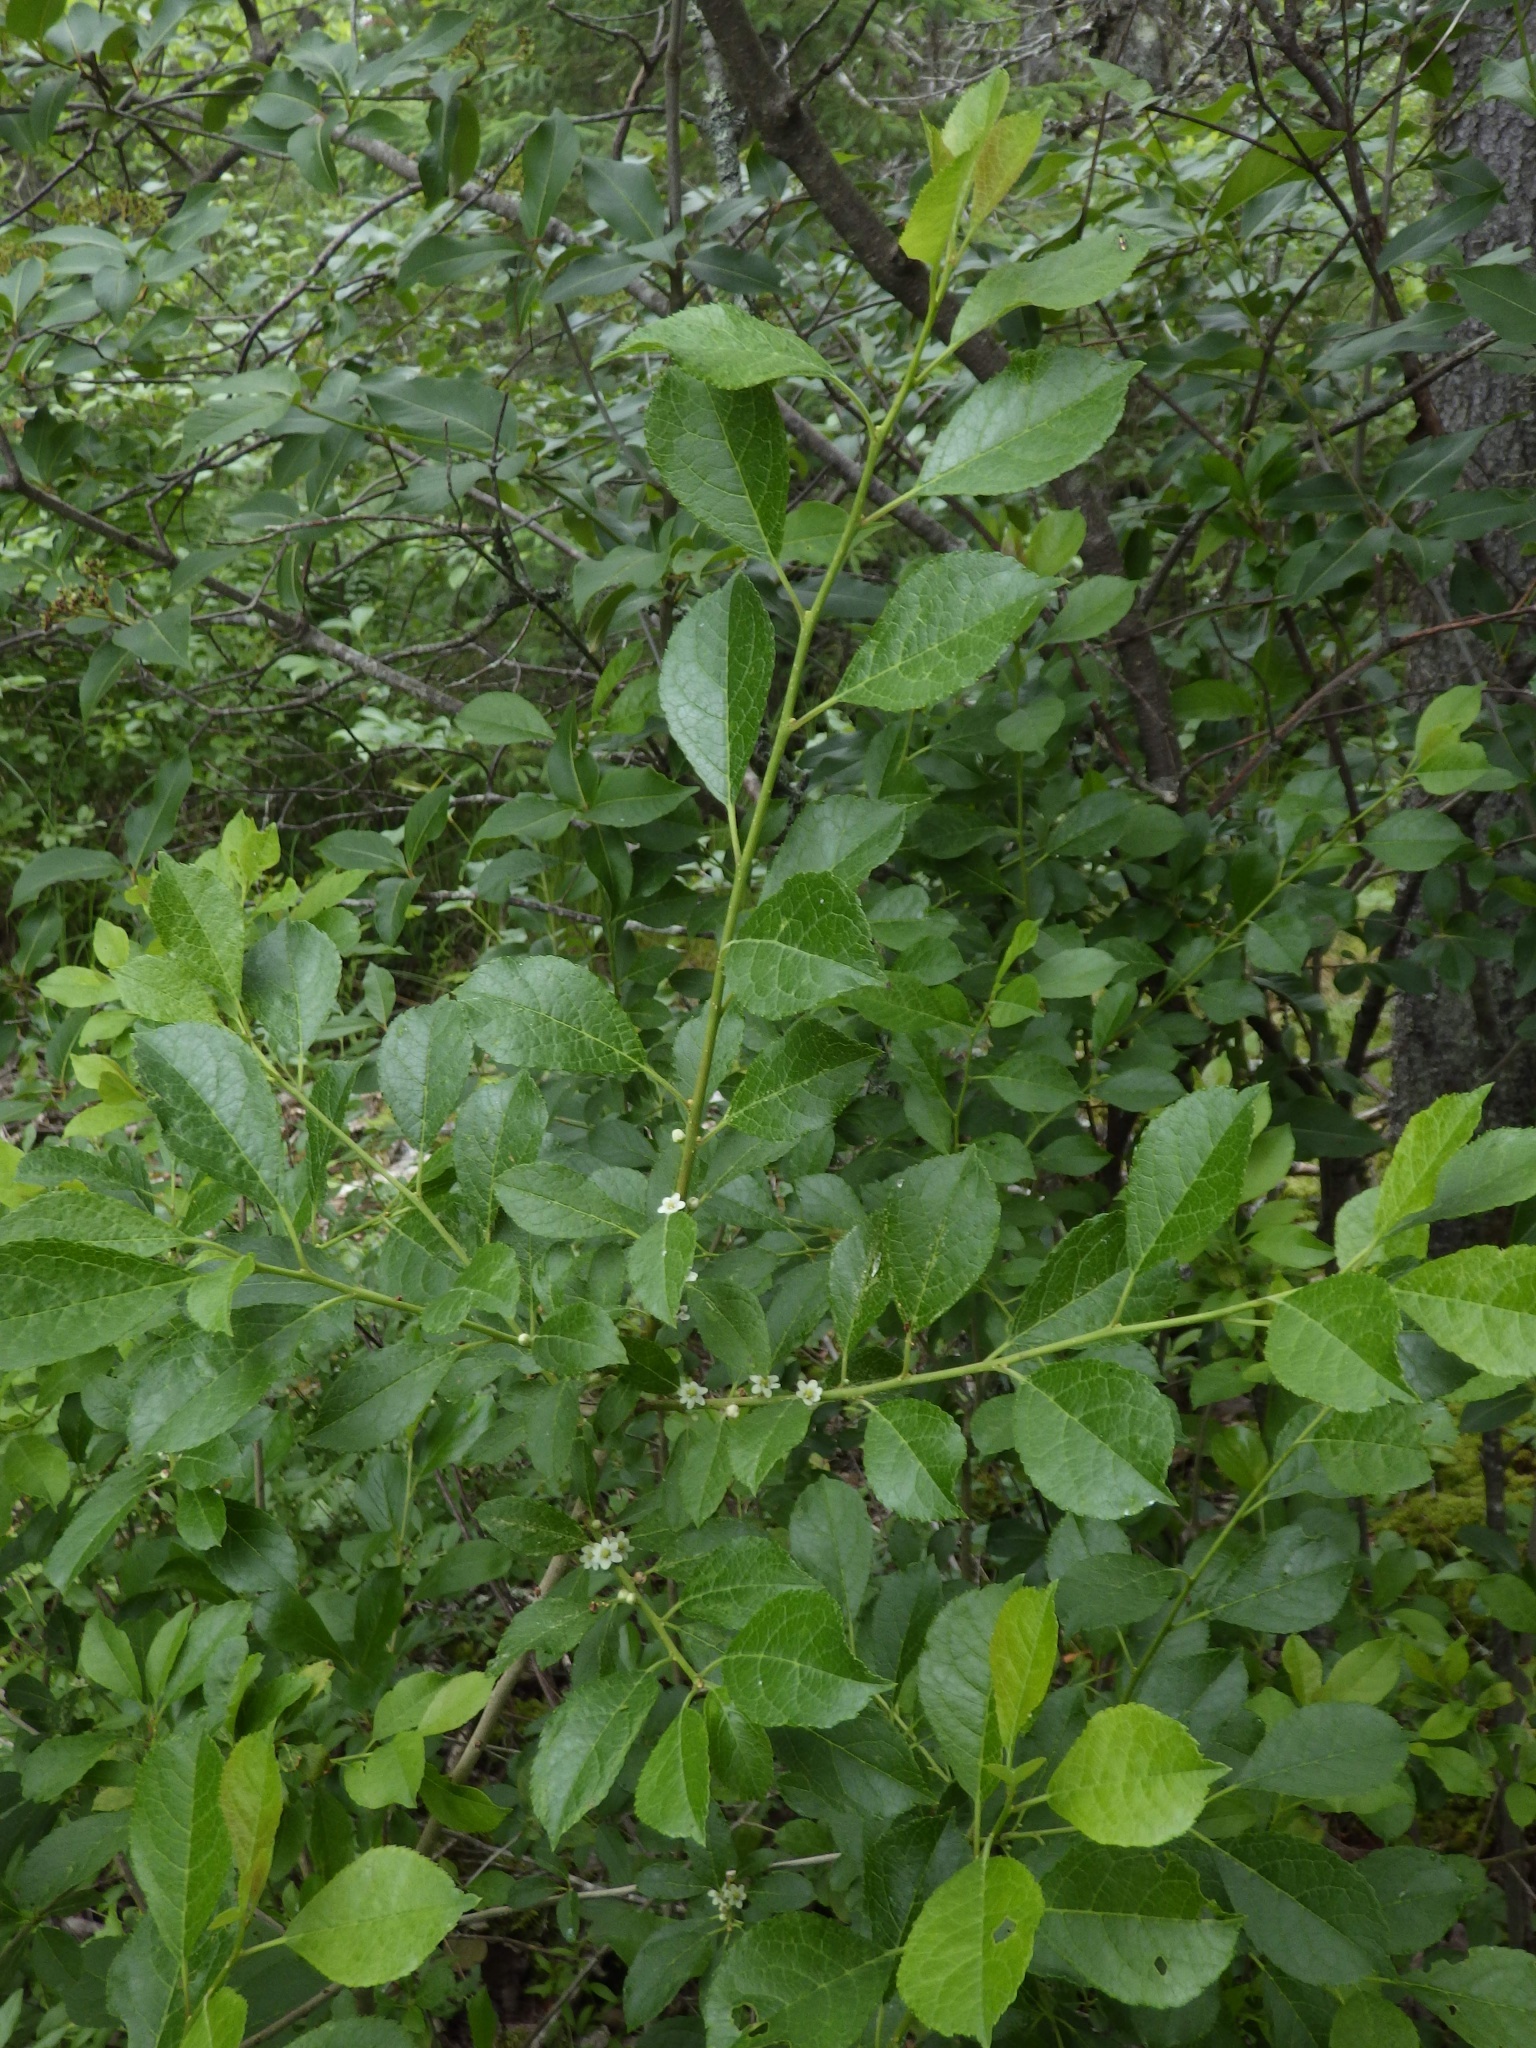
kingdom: Plantae
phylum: Tracheophyta
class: Magnoliopsida
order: Aquifoliales
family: Aquifoliaceae
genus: Ilex
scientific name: Ilex verticillata
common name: Virginia winterberry
